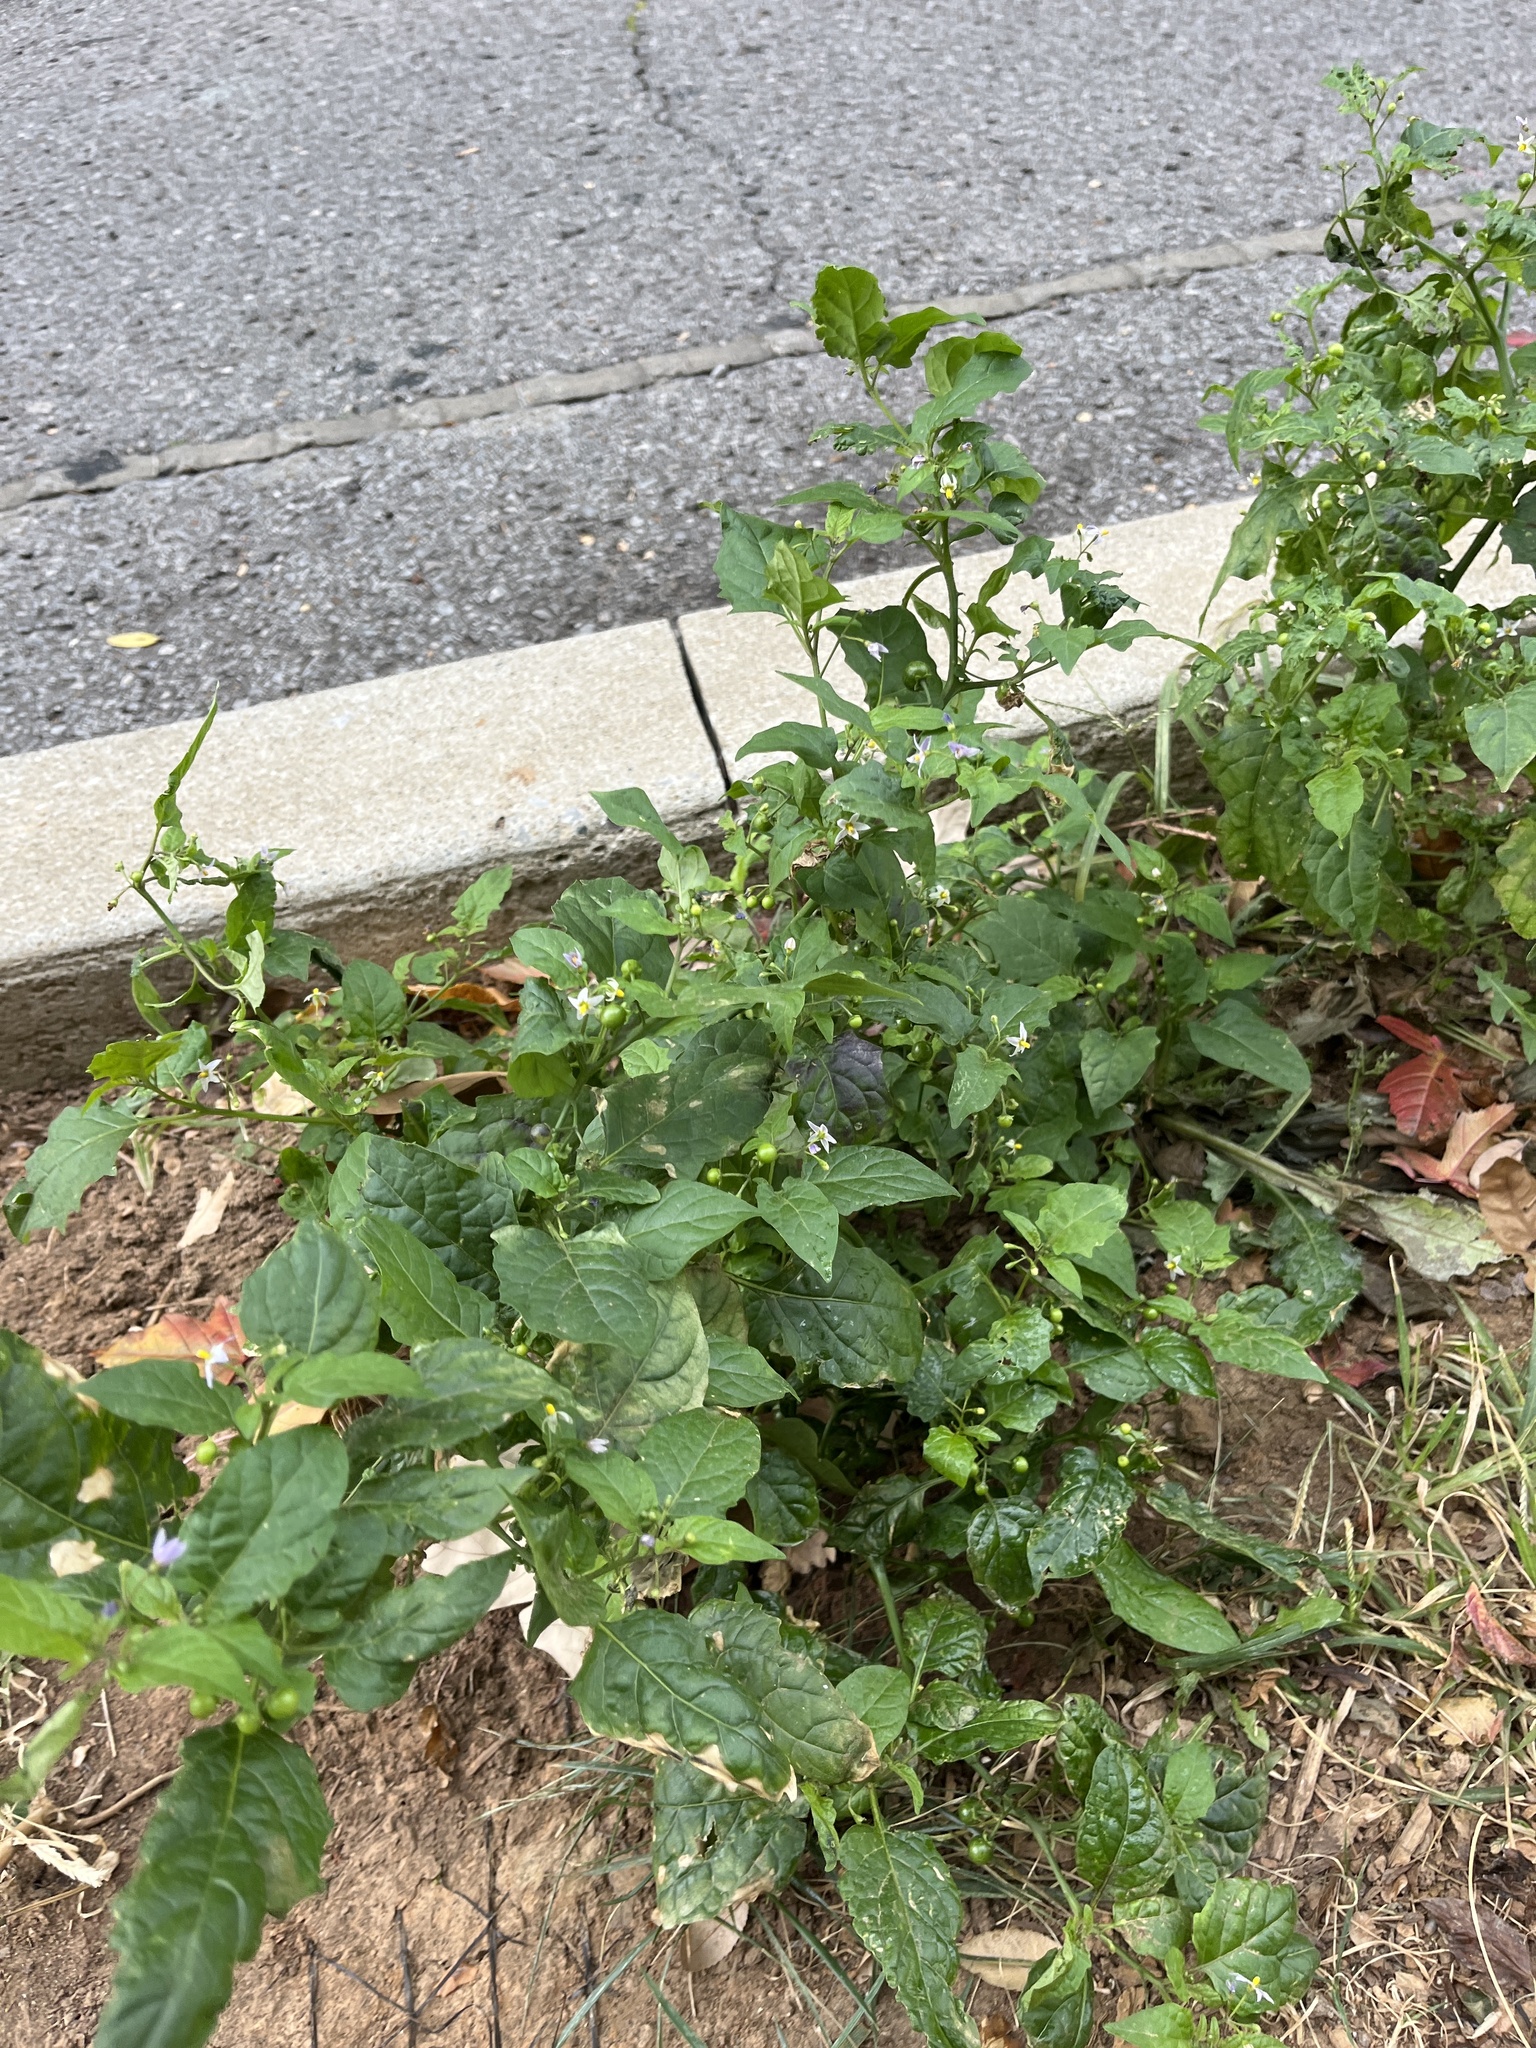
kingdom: Plantae
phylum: Tracheophyta
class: Magnoliopsida
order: Solanales
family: Solanaceae
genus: Solanum
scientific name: Solanum emulans
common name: Eastern black nightshade
